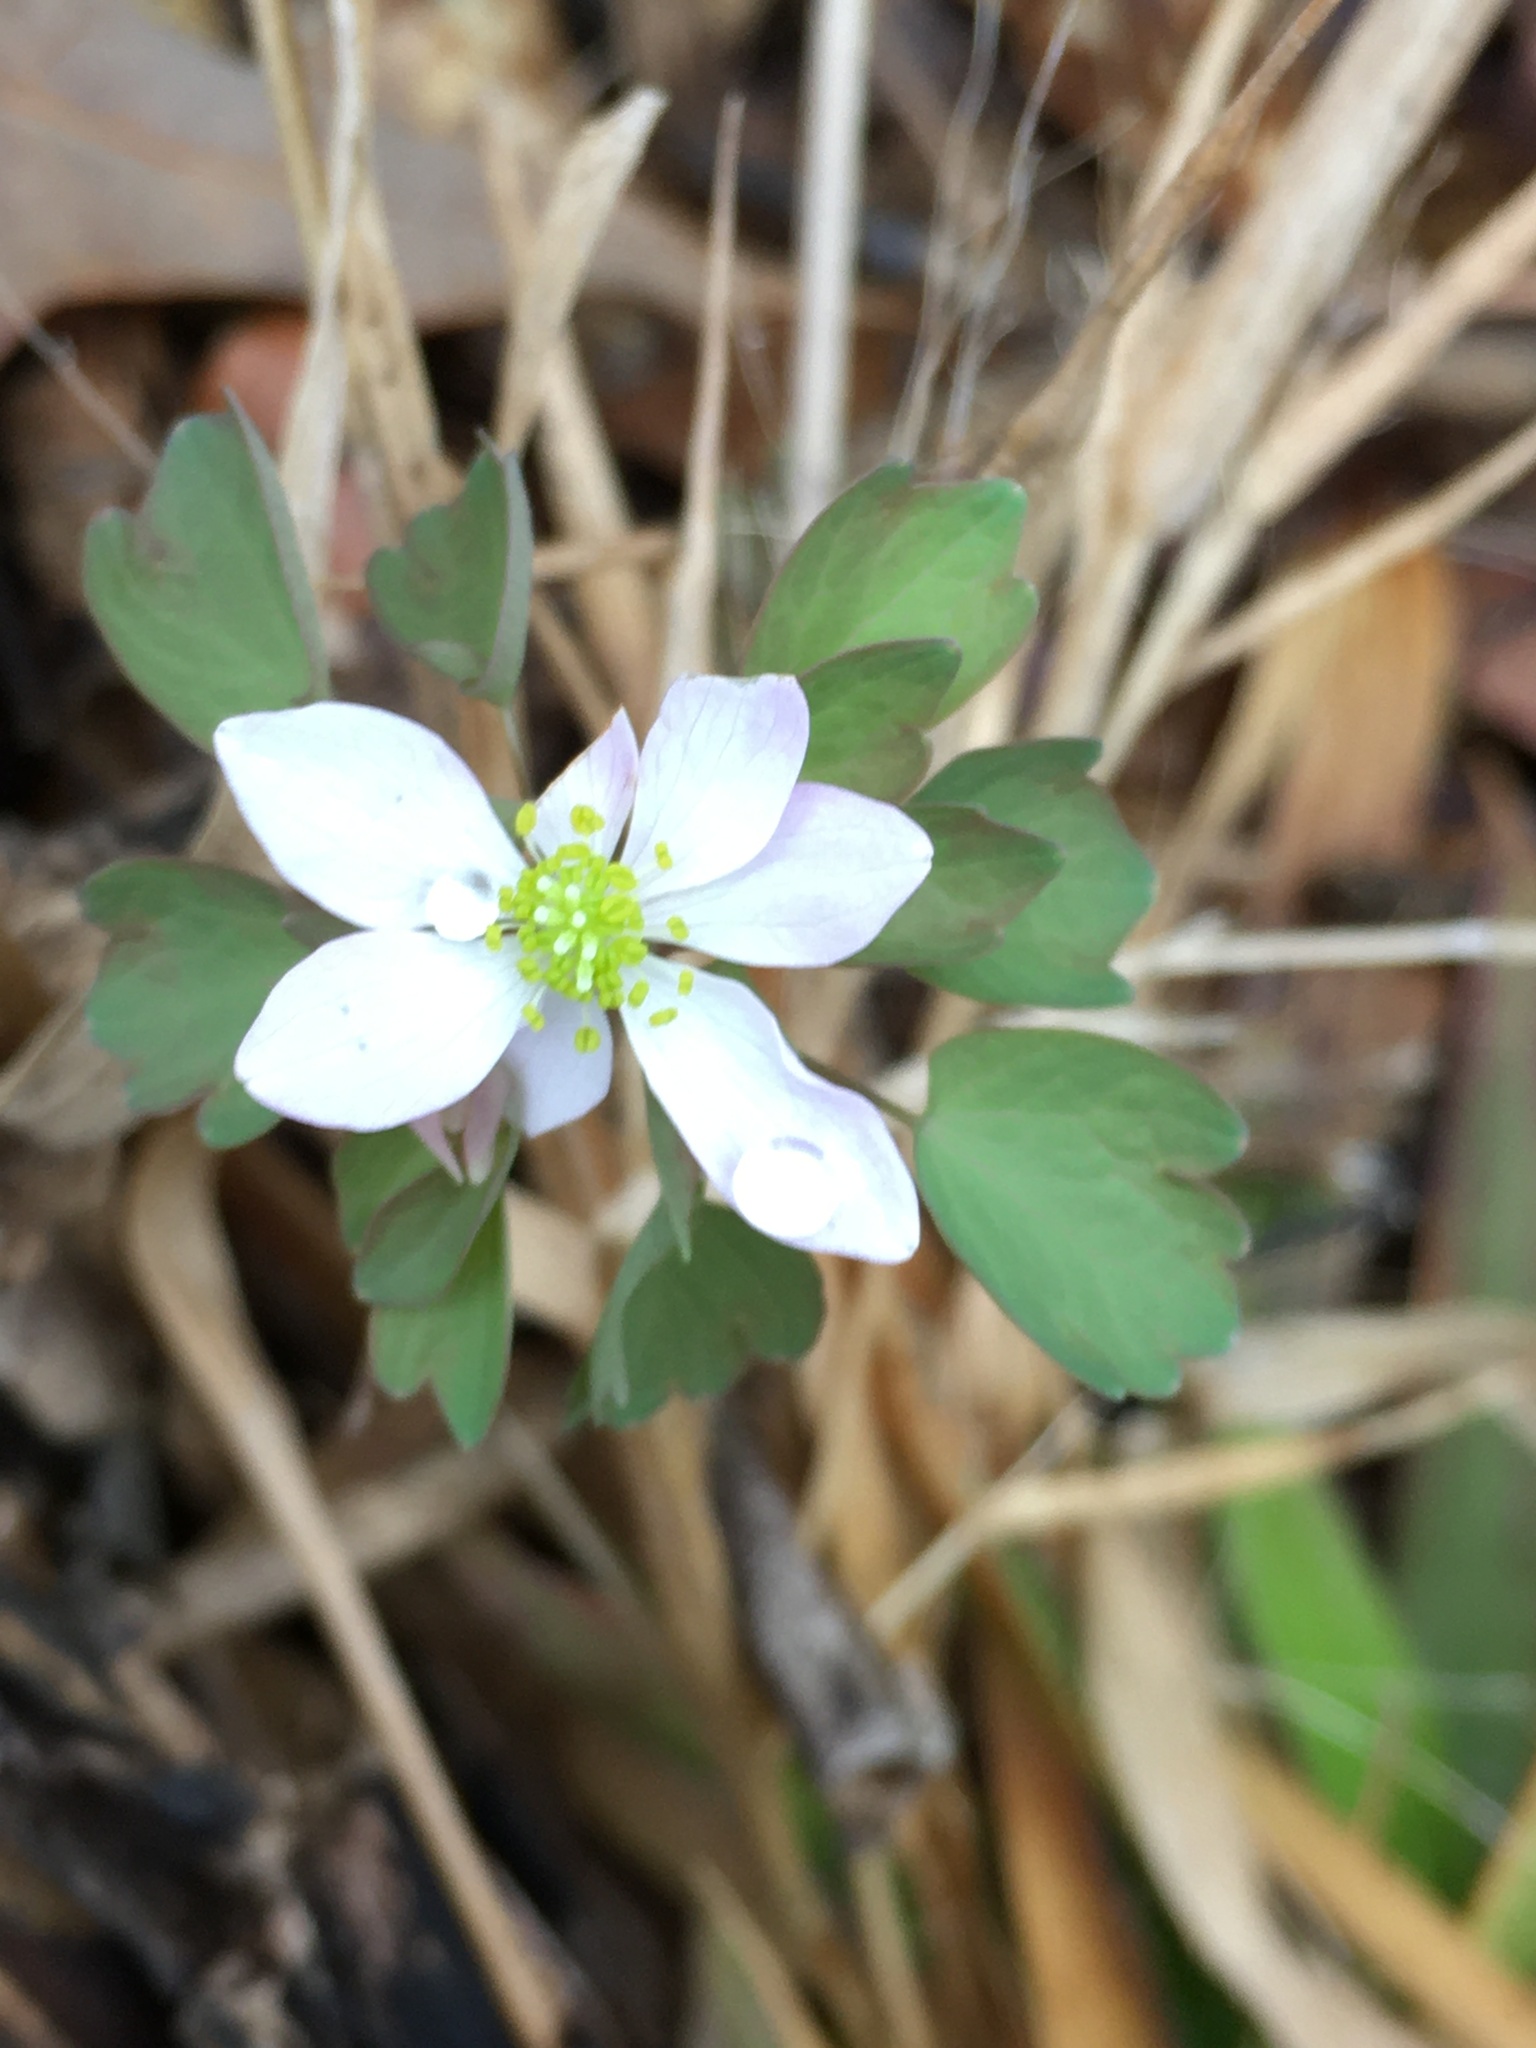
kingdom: Plantae
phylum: Tracheophyta
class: Magnoliopsida
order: Ranunculales
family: Ranunculaceae
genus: Thalictrum
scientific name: Thalictrum thalictroides
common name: Rue-anemone
